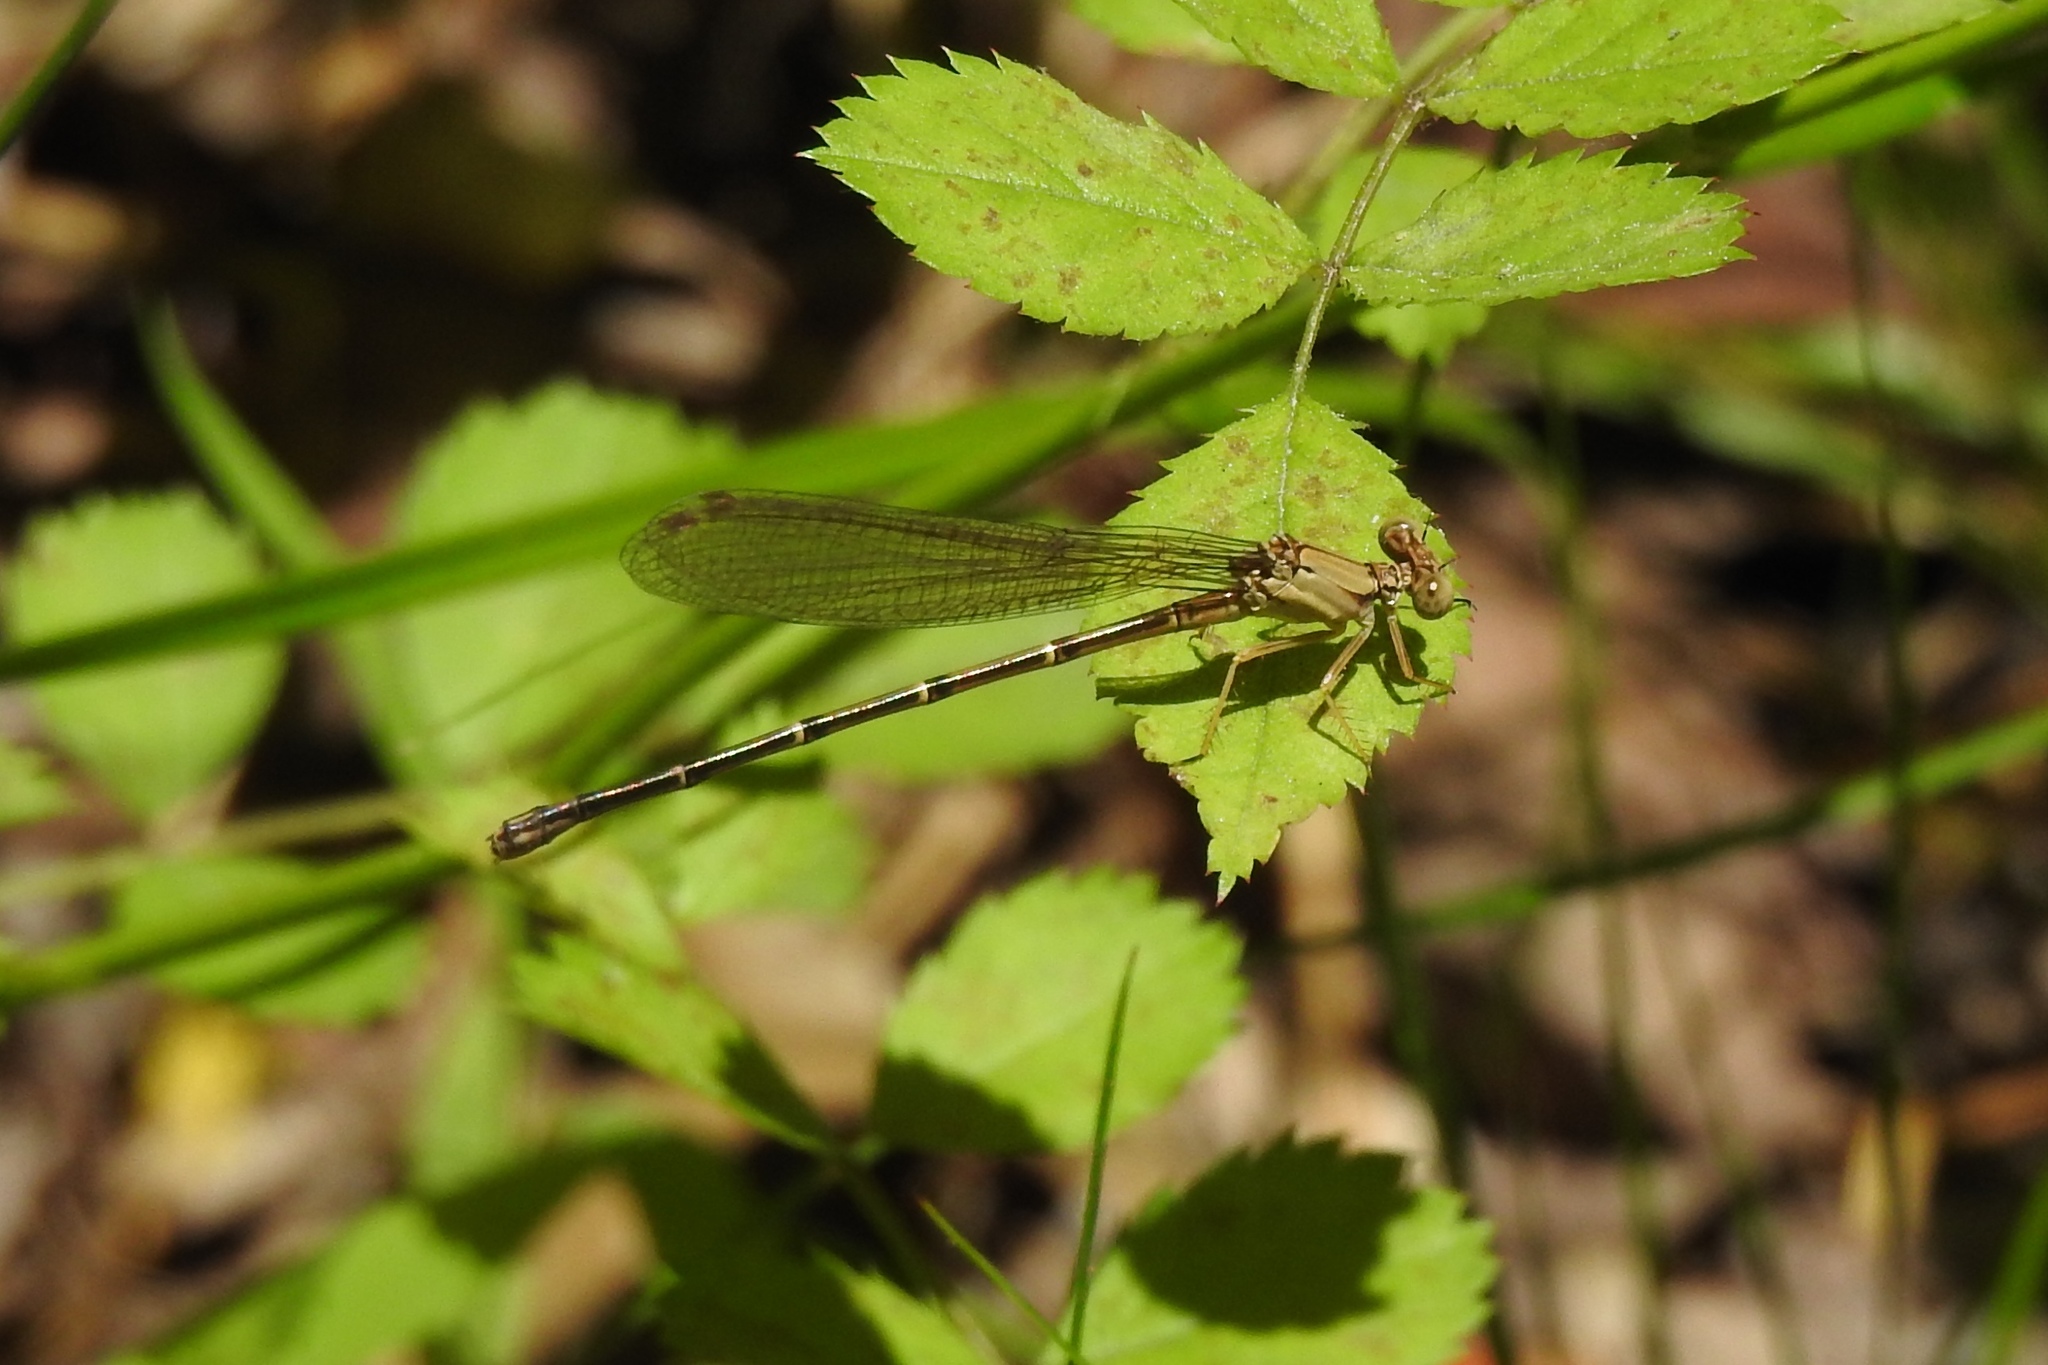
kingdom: Animalia
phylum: Arthropoda
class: Insecta
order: Odonata
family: Coenagrionidae
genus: Argia
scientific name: Argia apicalis
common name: Blue-fronted dancer
